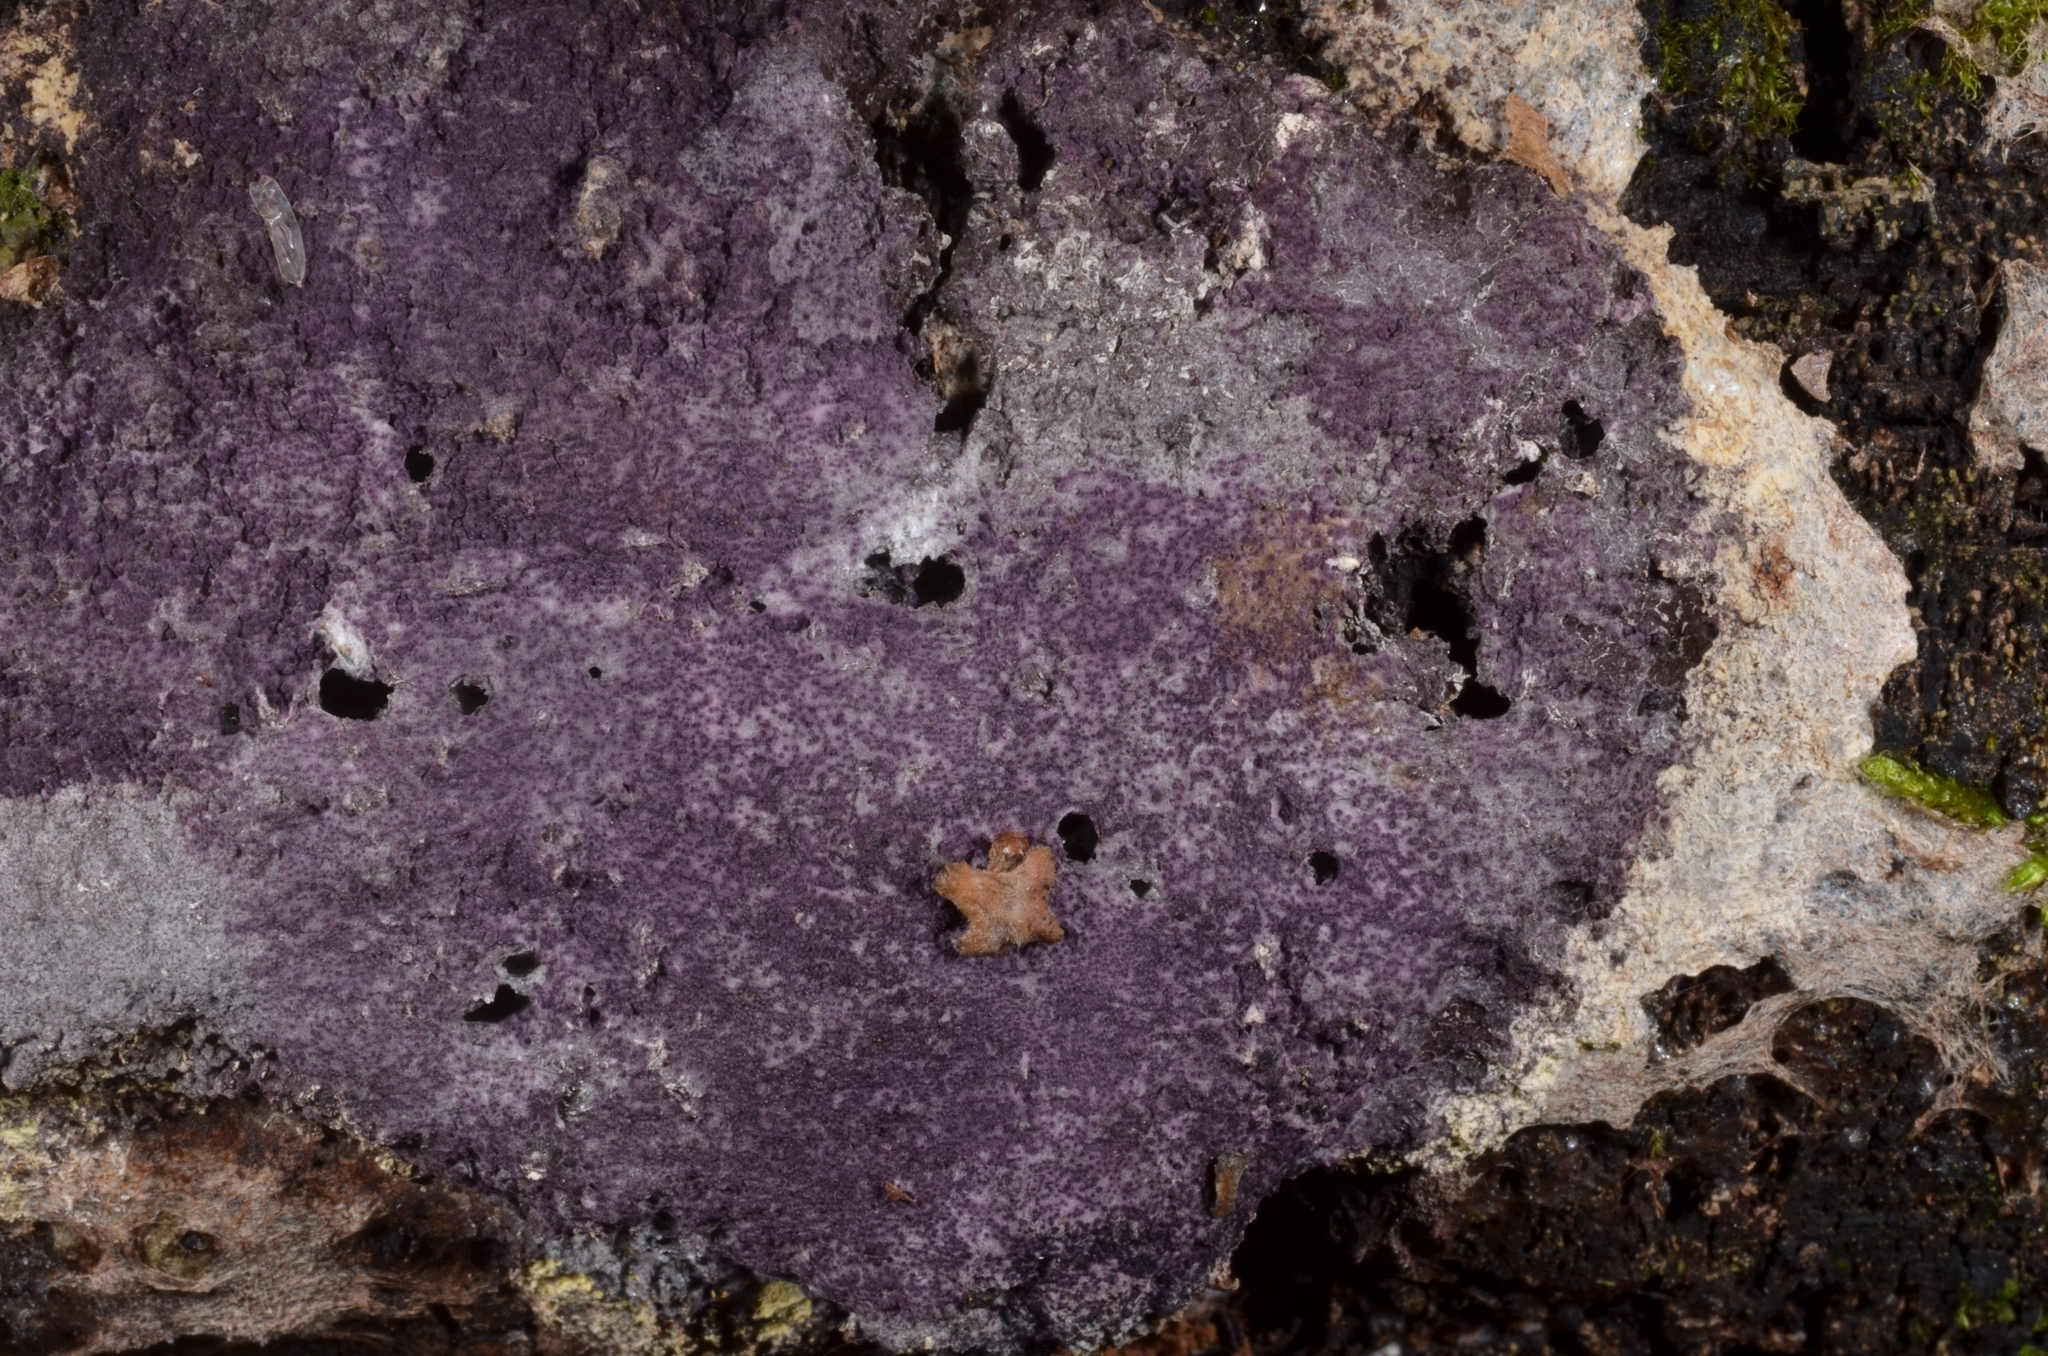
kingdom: Fungi
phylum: Ascomycota
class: Sordariomycetes
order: Hypocreales
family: Bionectriaceae
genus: Nectriopsis
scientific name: Nectriopsis violacea
